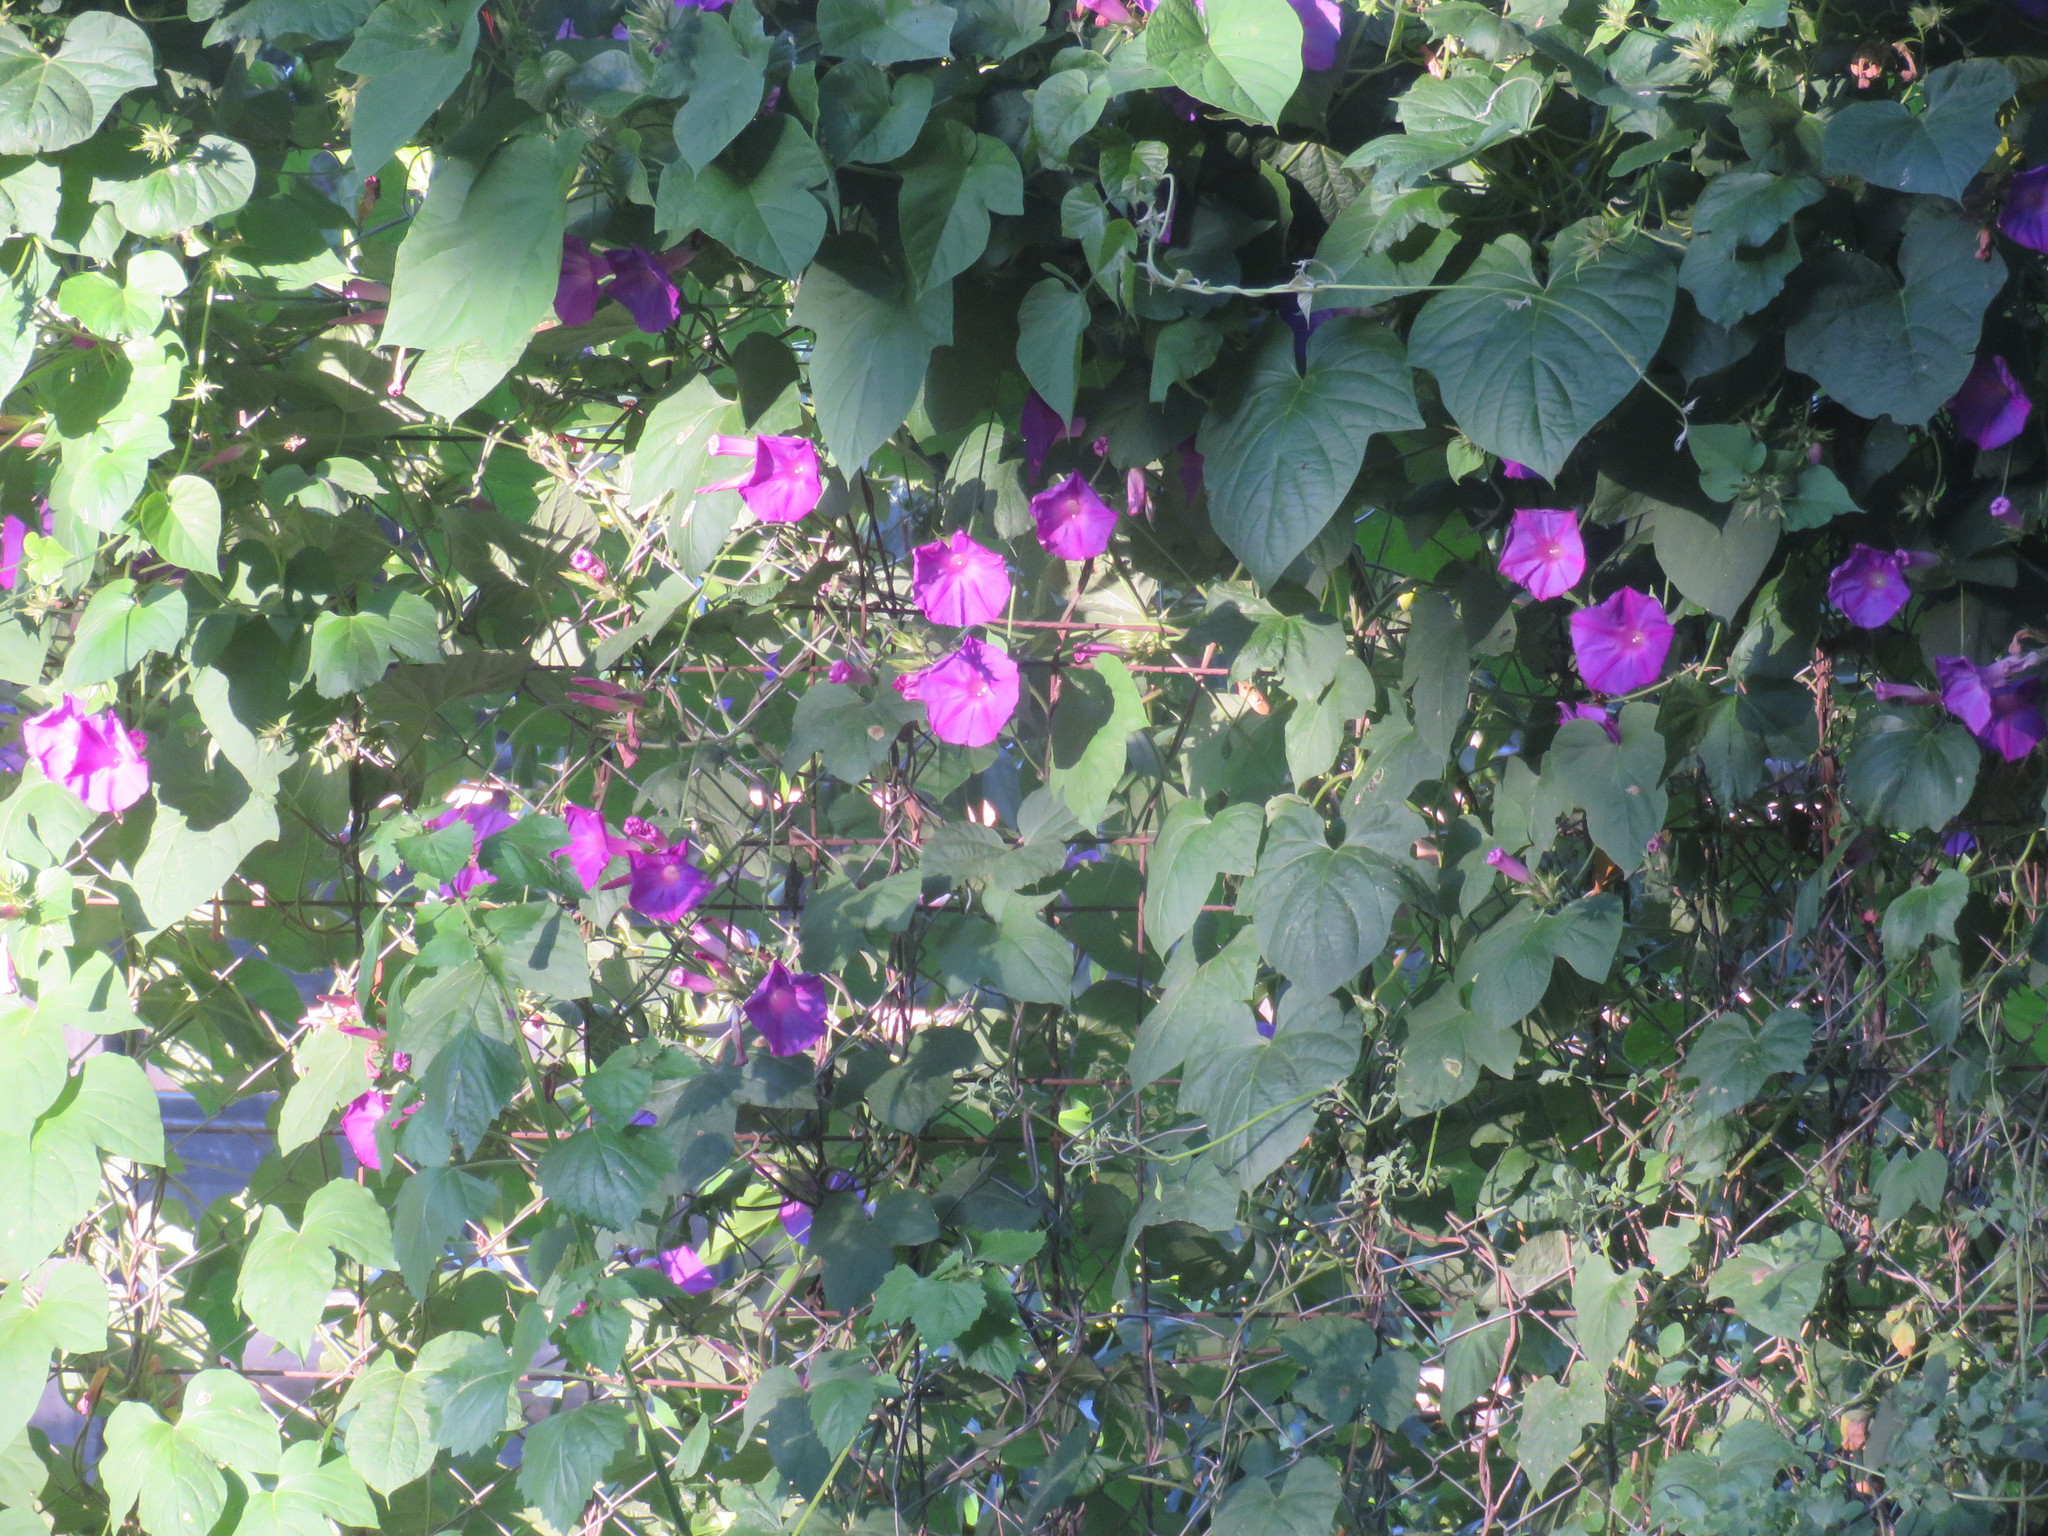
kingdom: Plantae
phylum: Tracheophyta
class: Magnoliopsida
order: Solanales
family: Convolvulaceae
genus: Ipomoea
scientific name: Ipomoea indica
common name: Blue dawnflower
